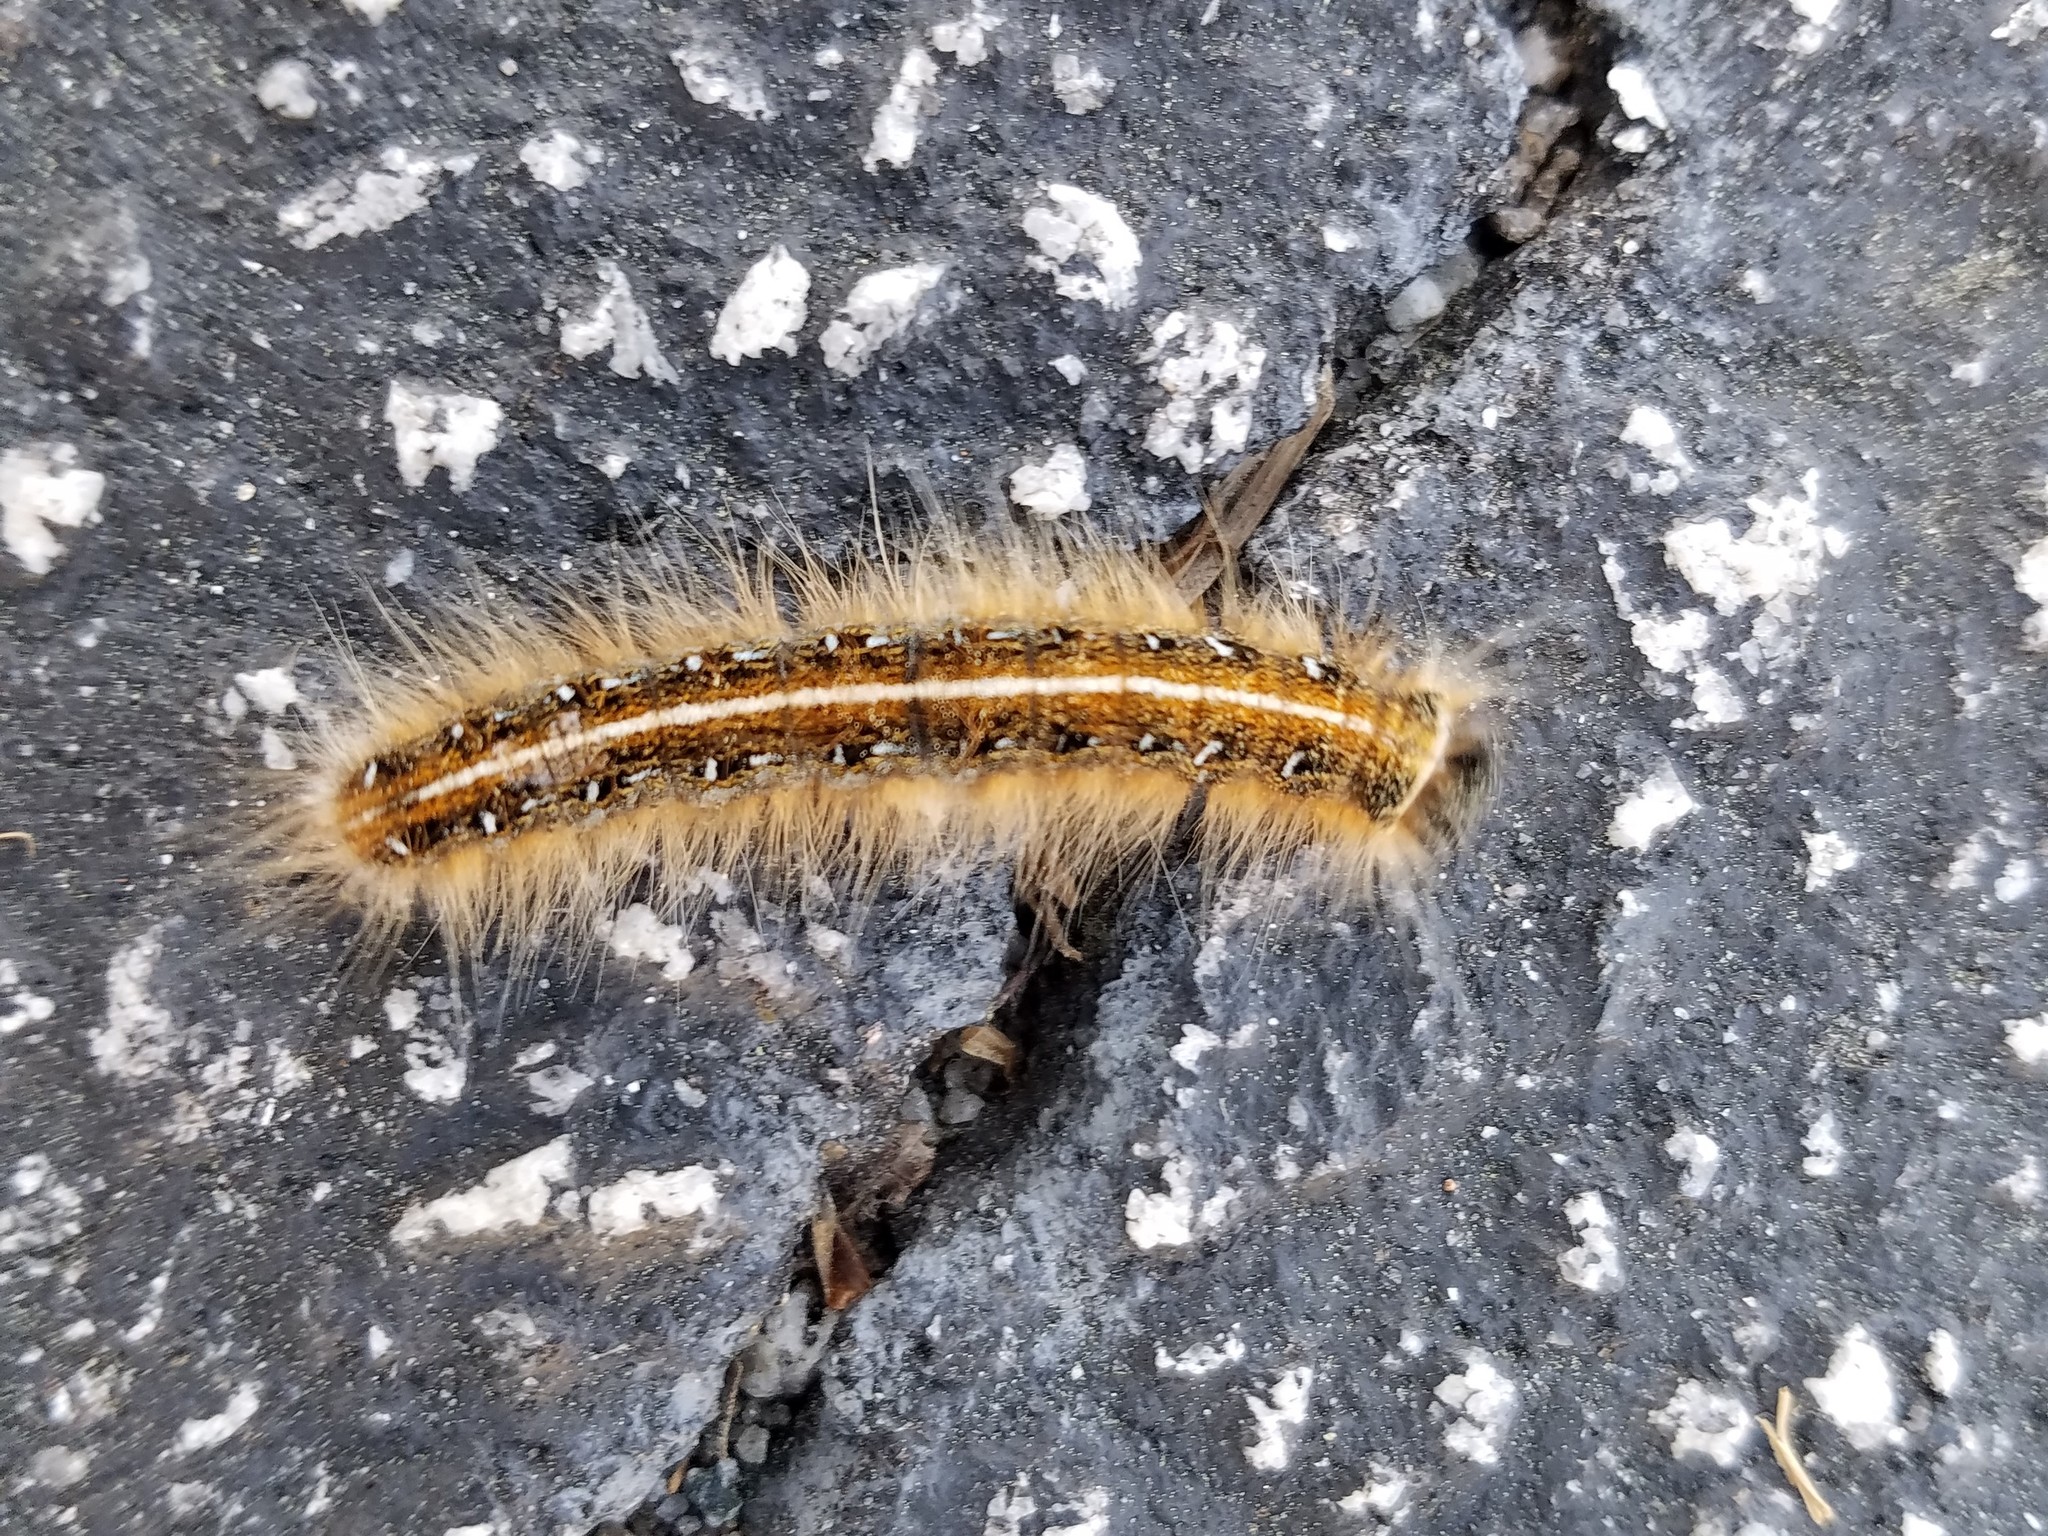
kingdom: Animalia
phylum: Arthropoda
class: Insecta
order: Lepidoptera
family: Lasiocampidae
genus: Malacosoma
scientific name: Malacosoma americana
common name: Eastern tent caterpillar moth
